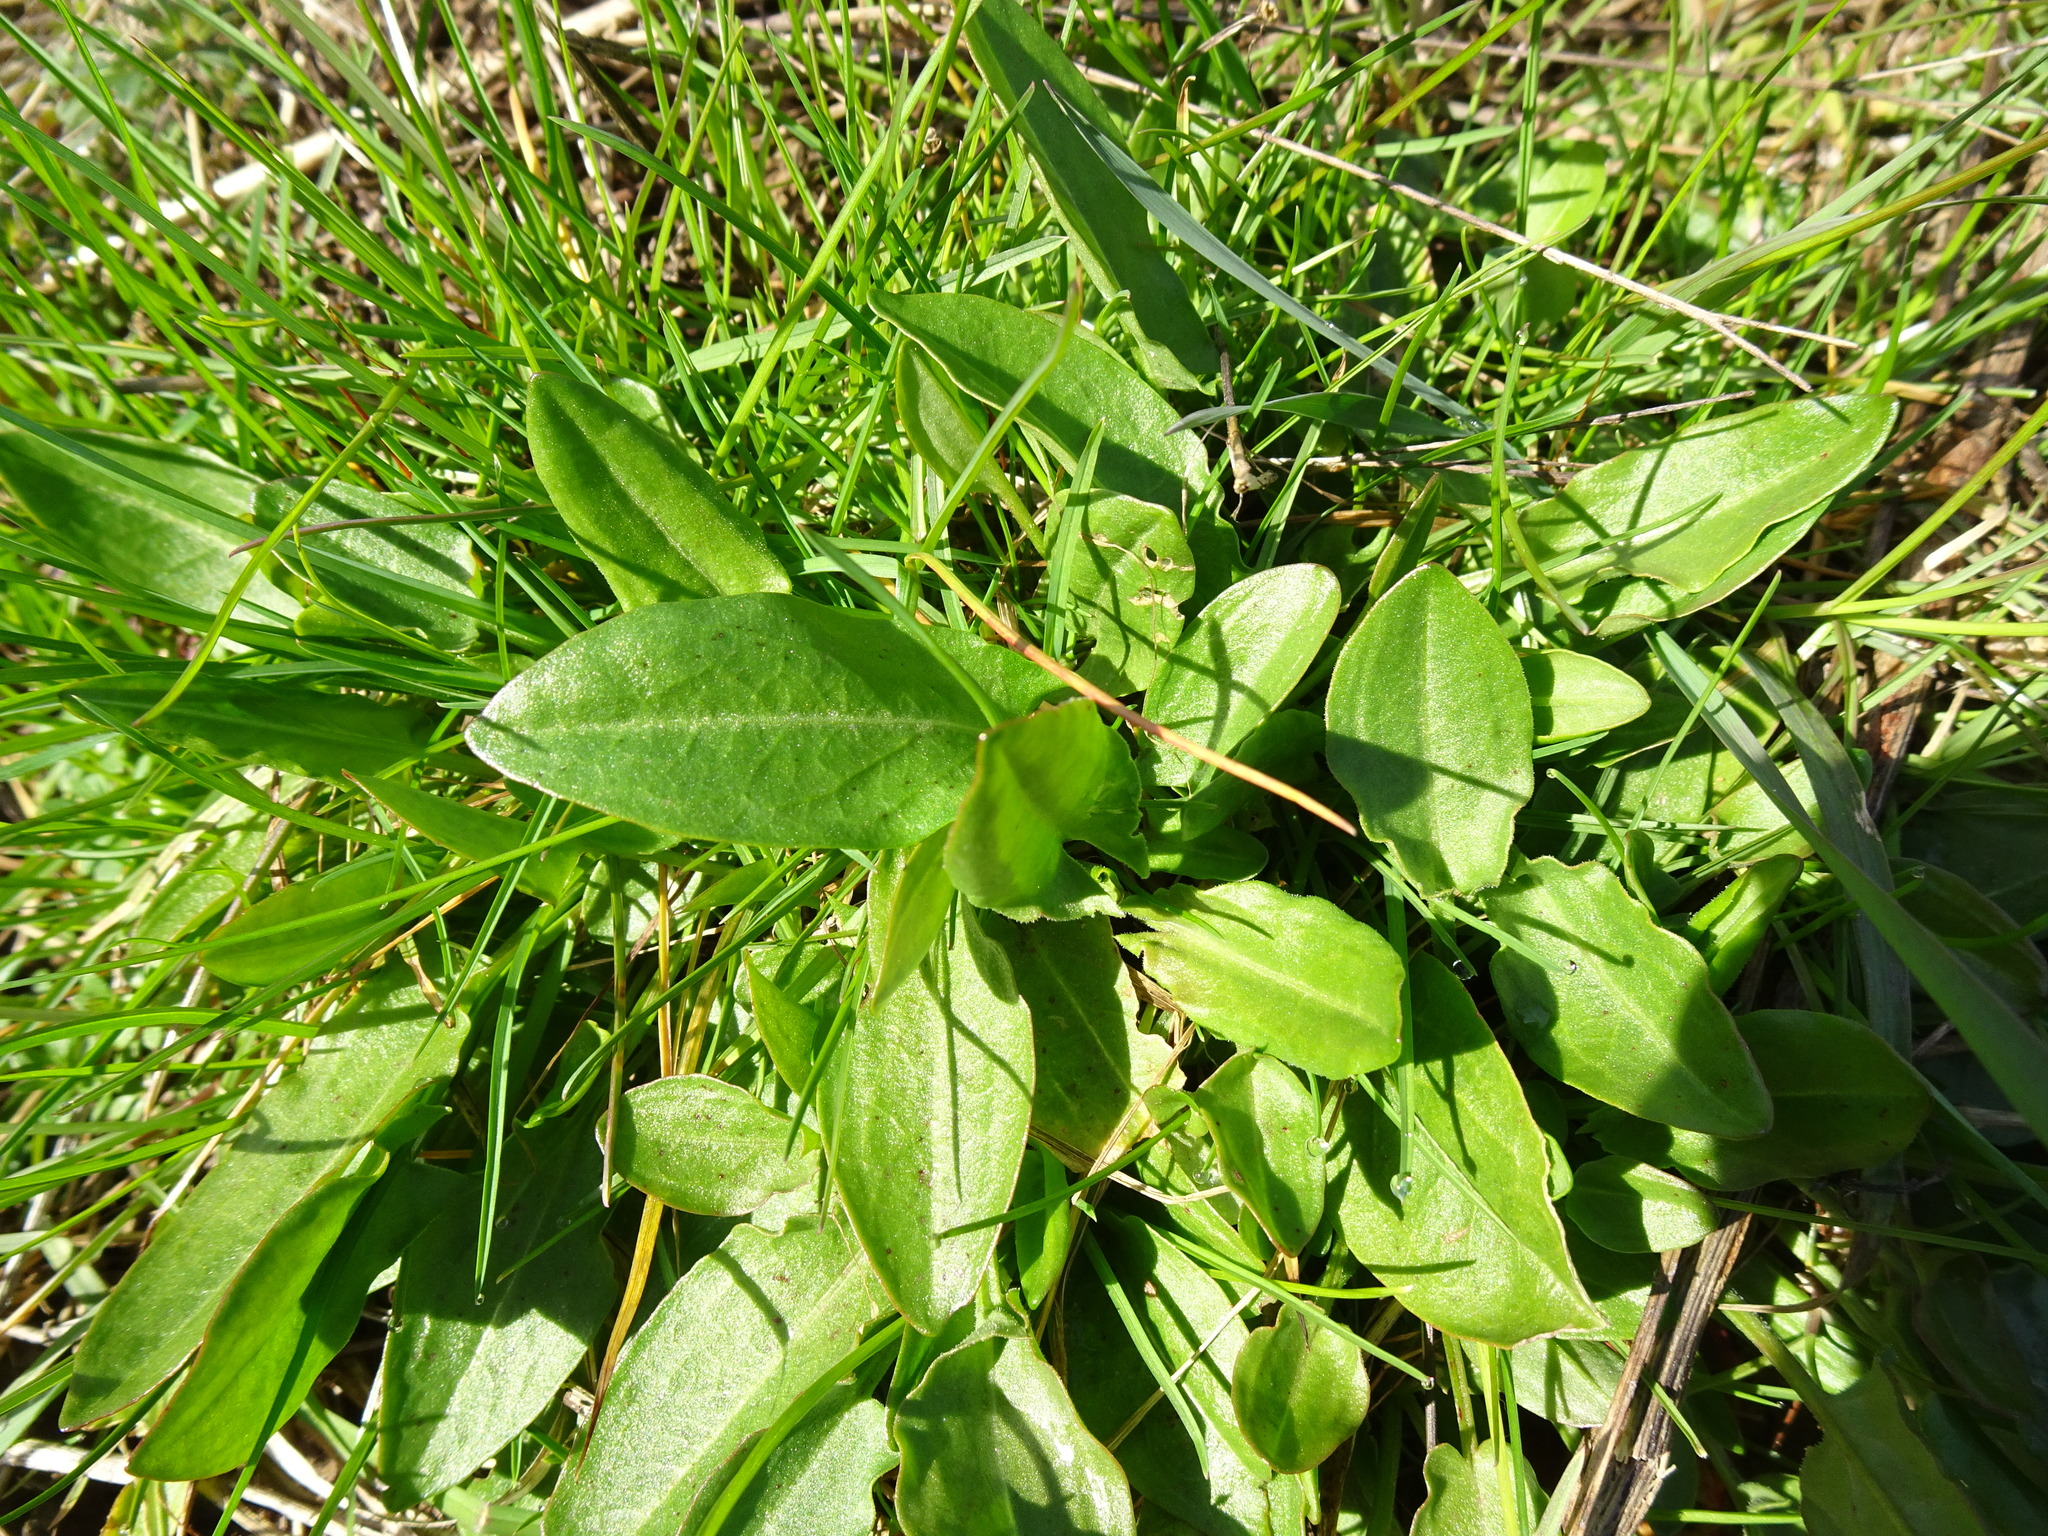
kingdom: Plantae
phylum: Tracheophyta
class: Magnoliopsida
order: Caryophyllales
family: Polygonaceae
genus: Rumex
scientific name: Rumex acetosa
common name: Garden sorrel
